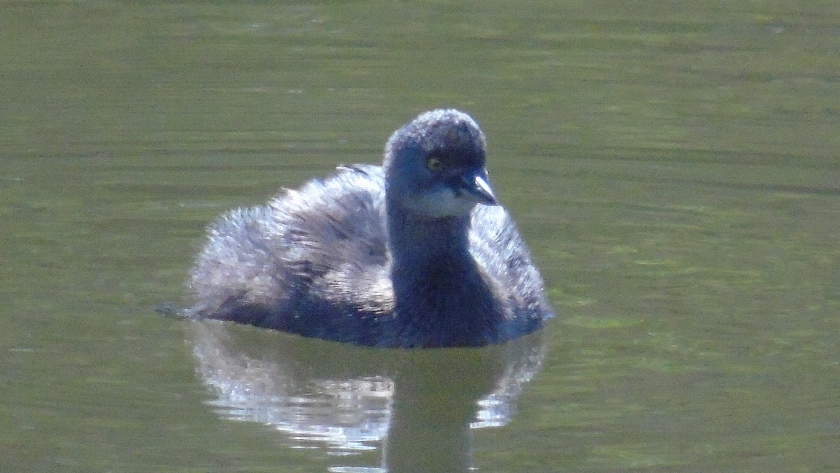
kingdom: Animalia
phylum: Chordata
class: Aves
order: Podicipediformes
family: Podicipedidae
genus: Tachybaptus
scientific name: Tachybaptus dominicus
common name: Least grebe
